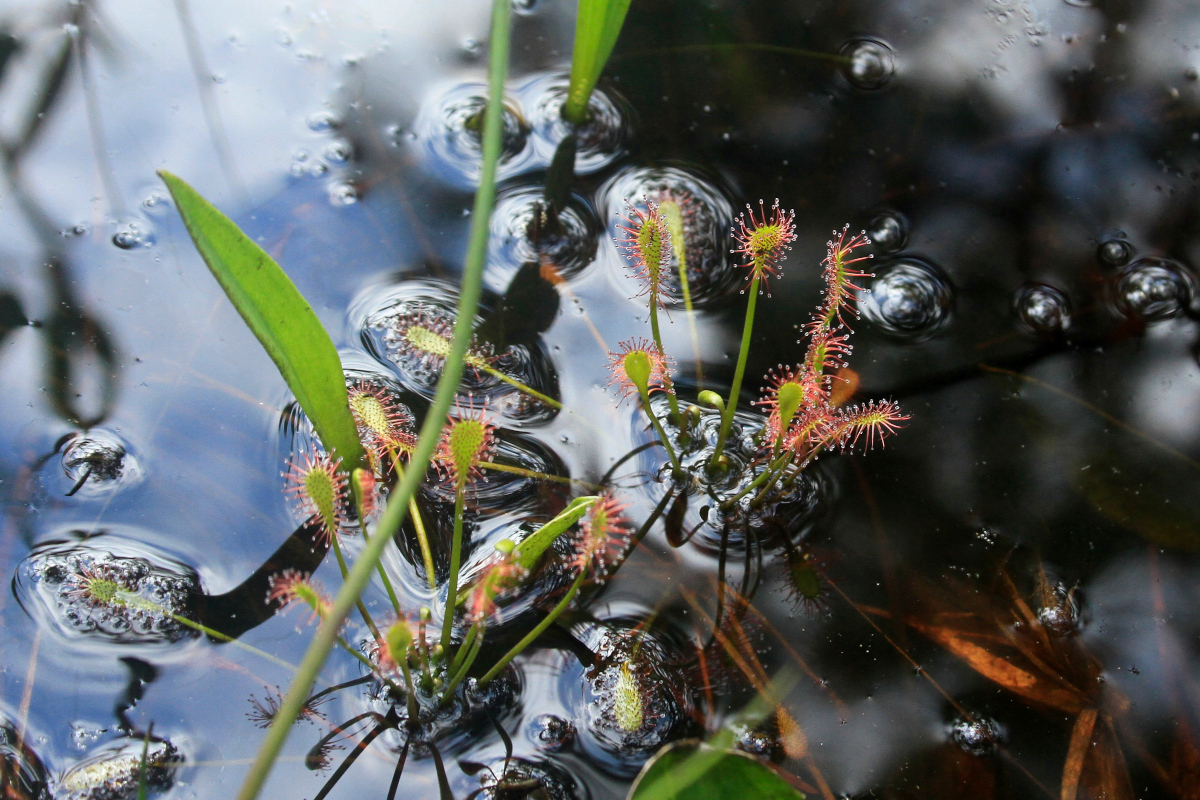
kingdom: Plantae
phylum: Tracheophyta
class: Magnoliopsida
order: Caryophyllales
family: Droseraceae
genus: Drosera
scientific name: Drosera intermedia
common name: Oblong-leaved sundew
